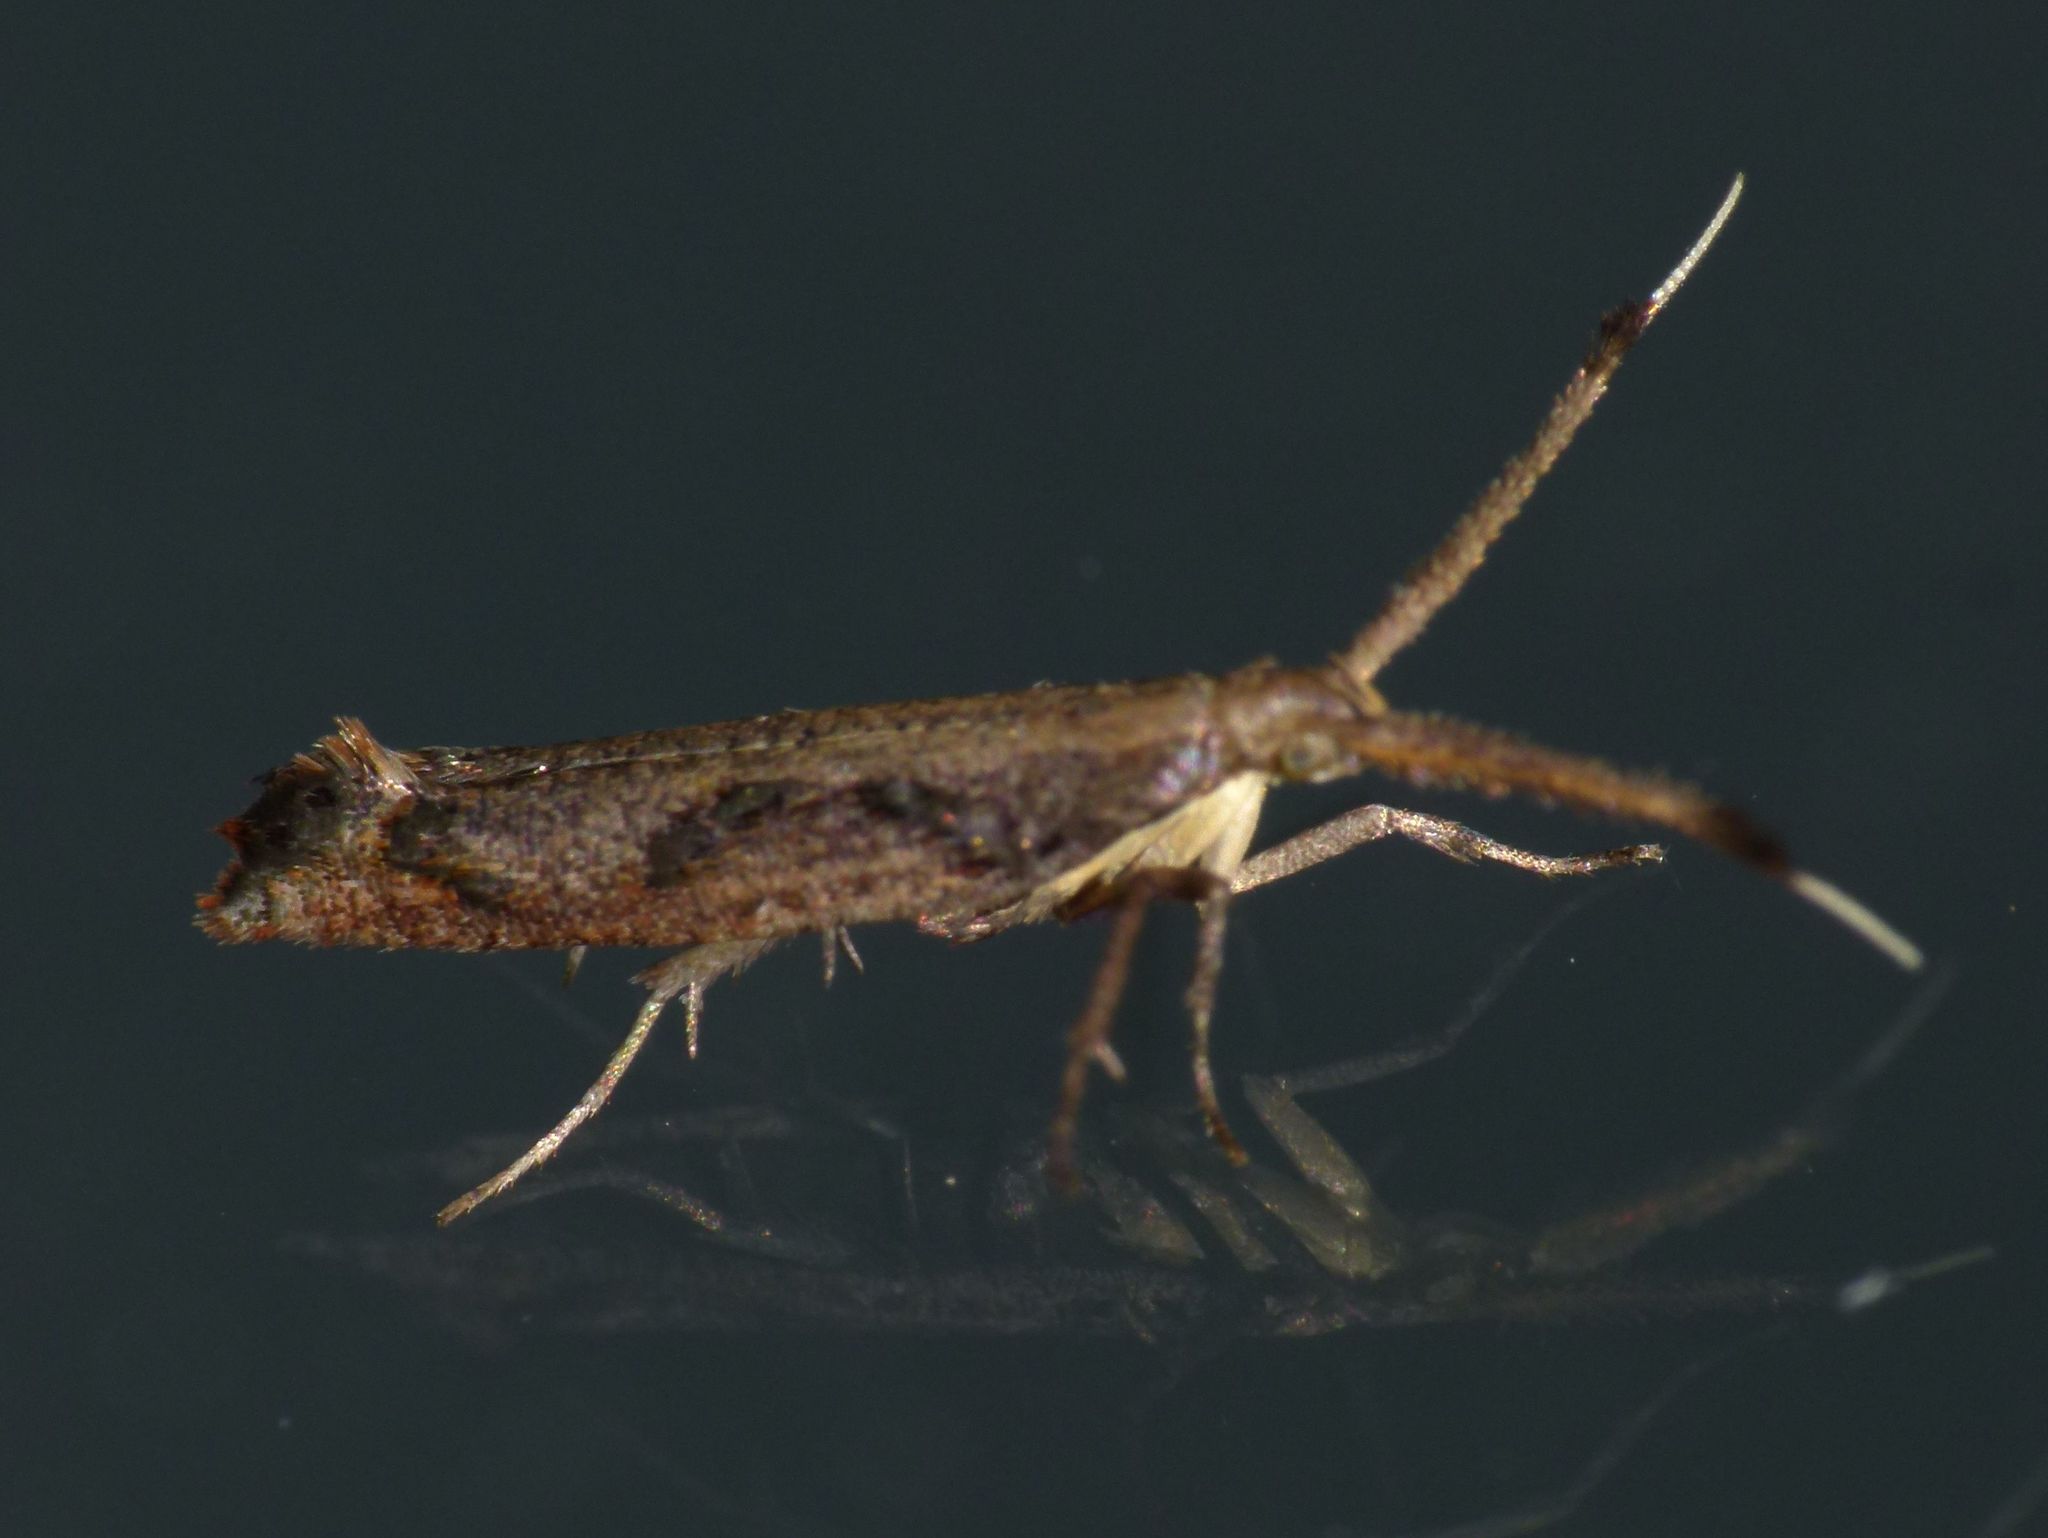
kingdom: Animalia
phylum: Arthropoda
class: Insecta
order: Lepidoptera
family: Plutellidae
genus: Protosynaema
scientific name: Protosynaema steropucha
